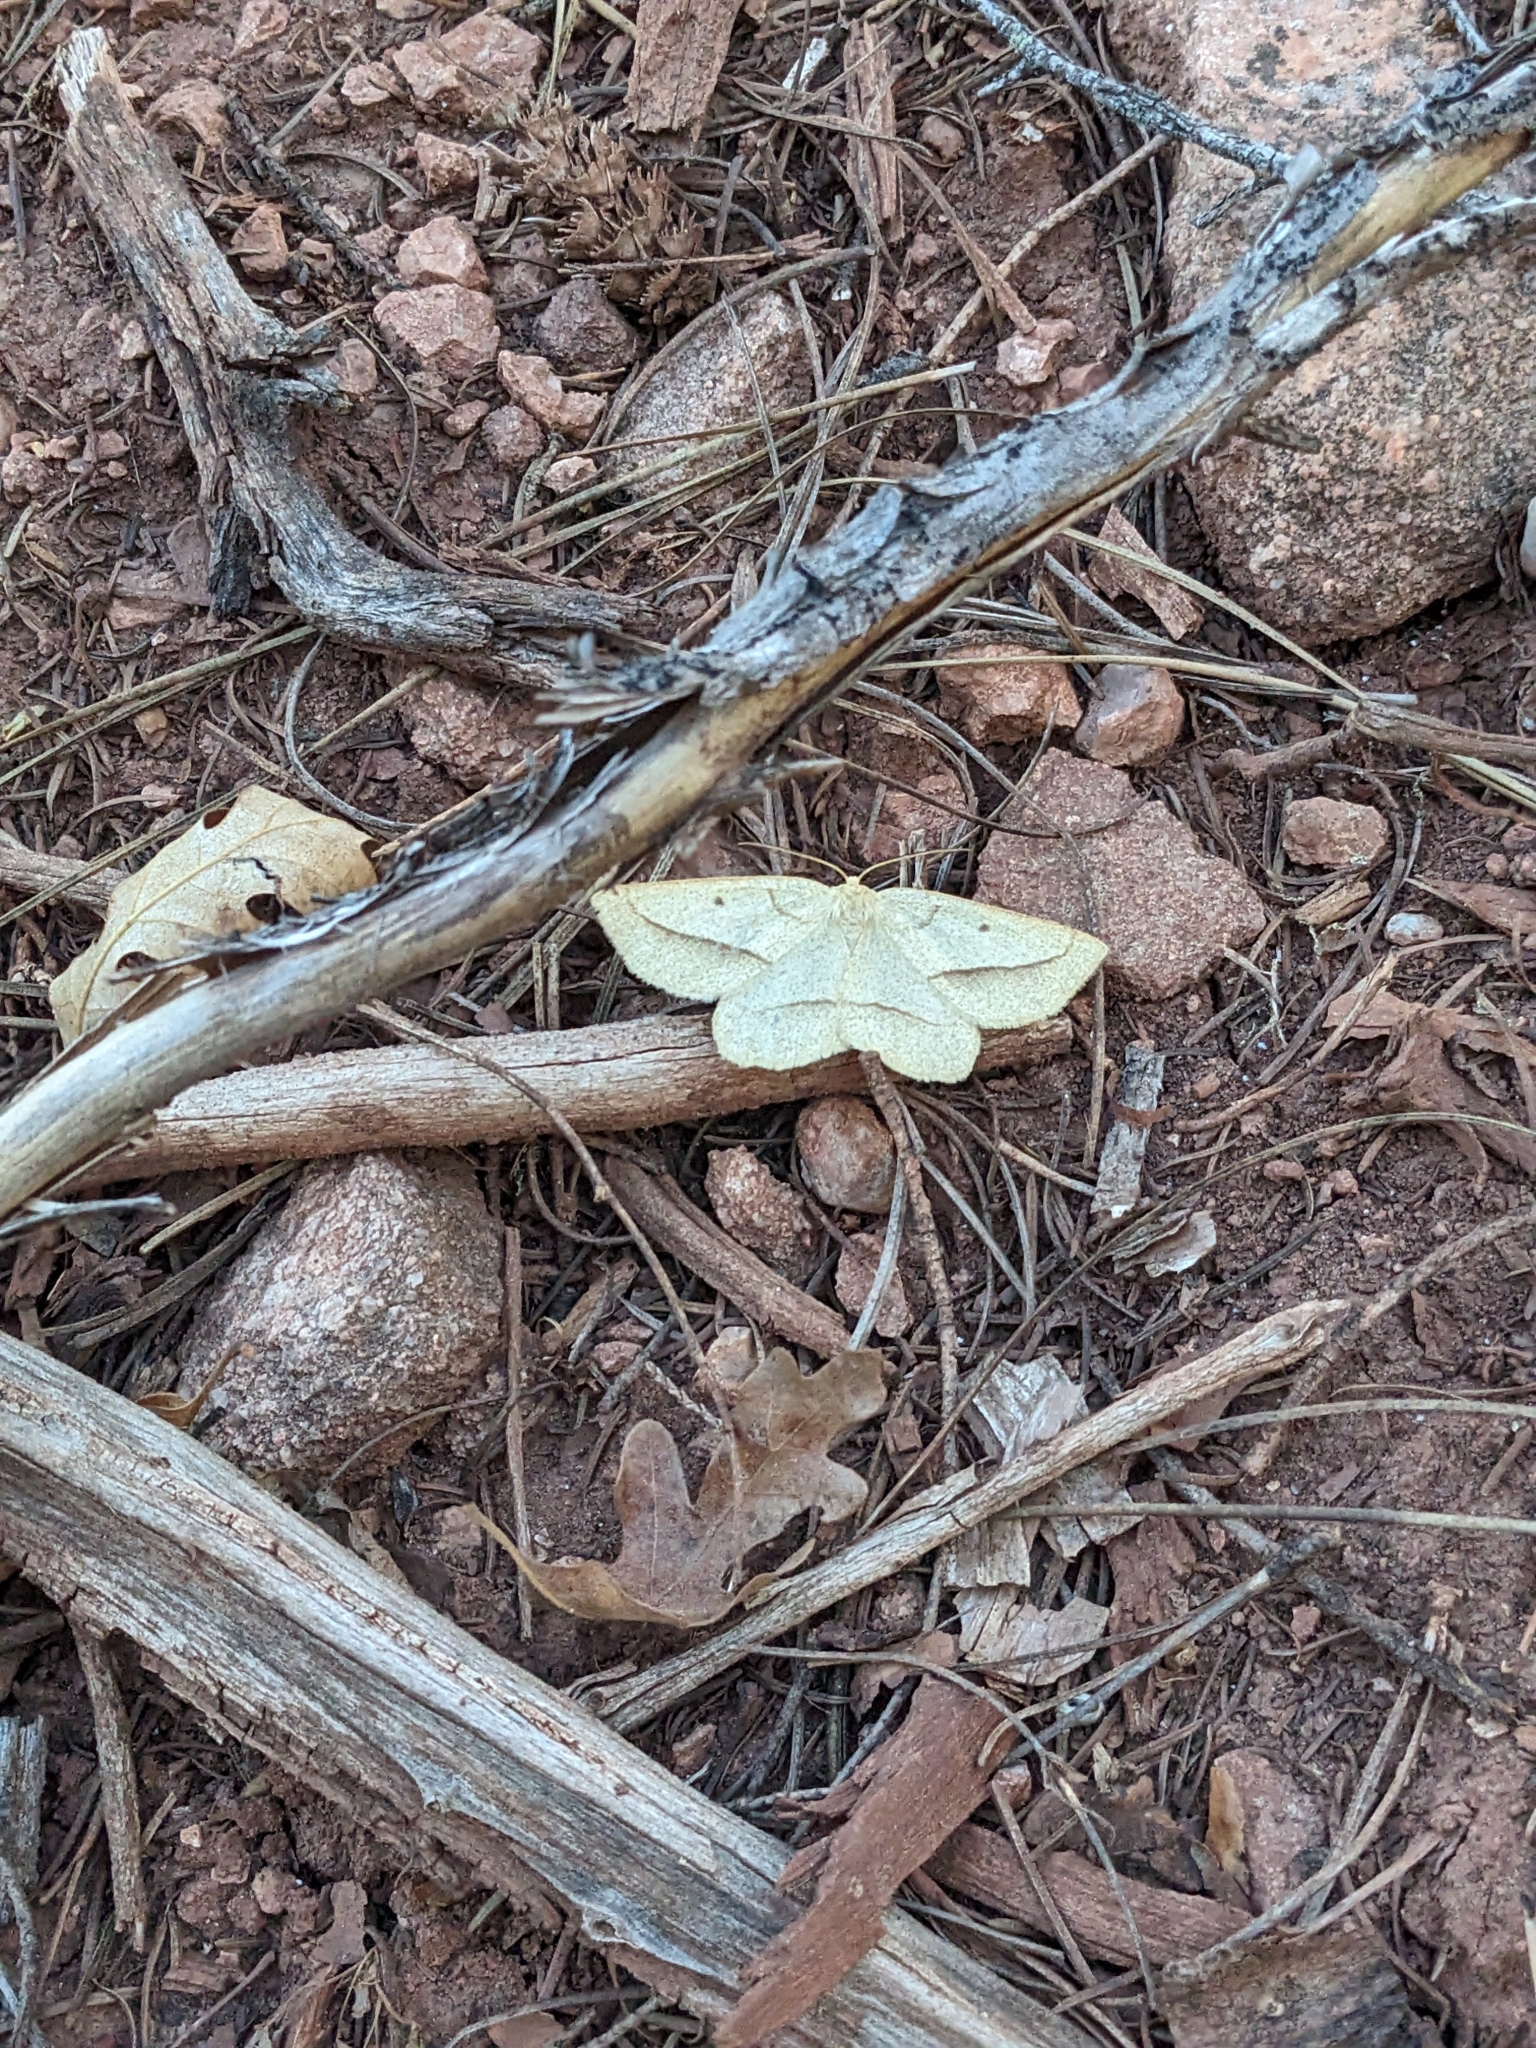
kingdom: Animalia
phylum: Arthropoda
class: Insecta
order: Lepidoptera
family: Geometridae
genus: Euchlaena
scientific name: Euchlaena irraria
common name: Least-marked euchlaena
